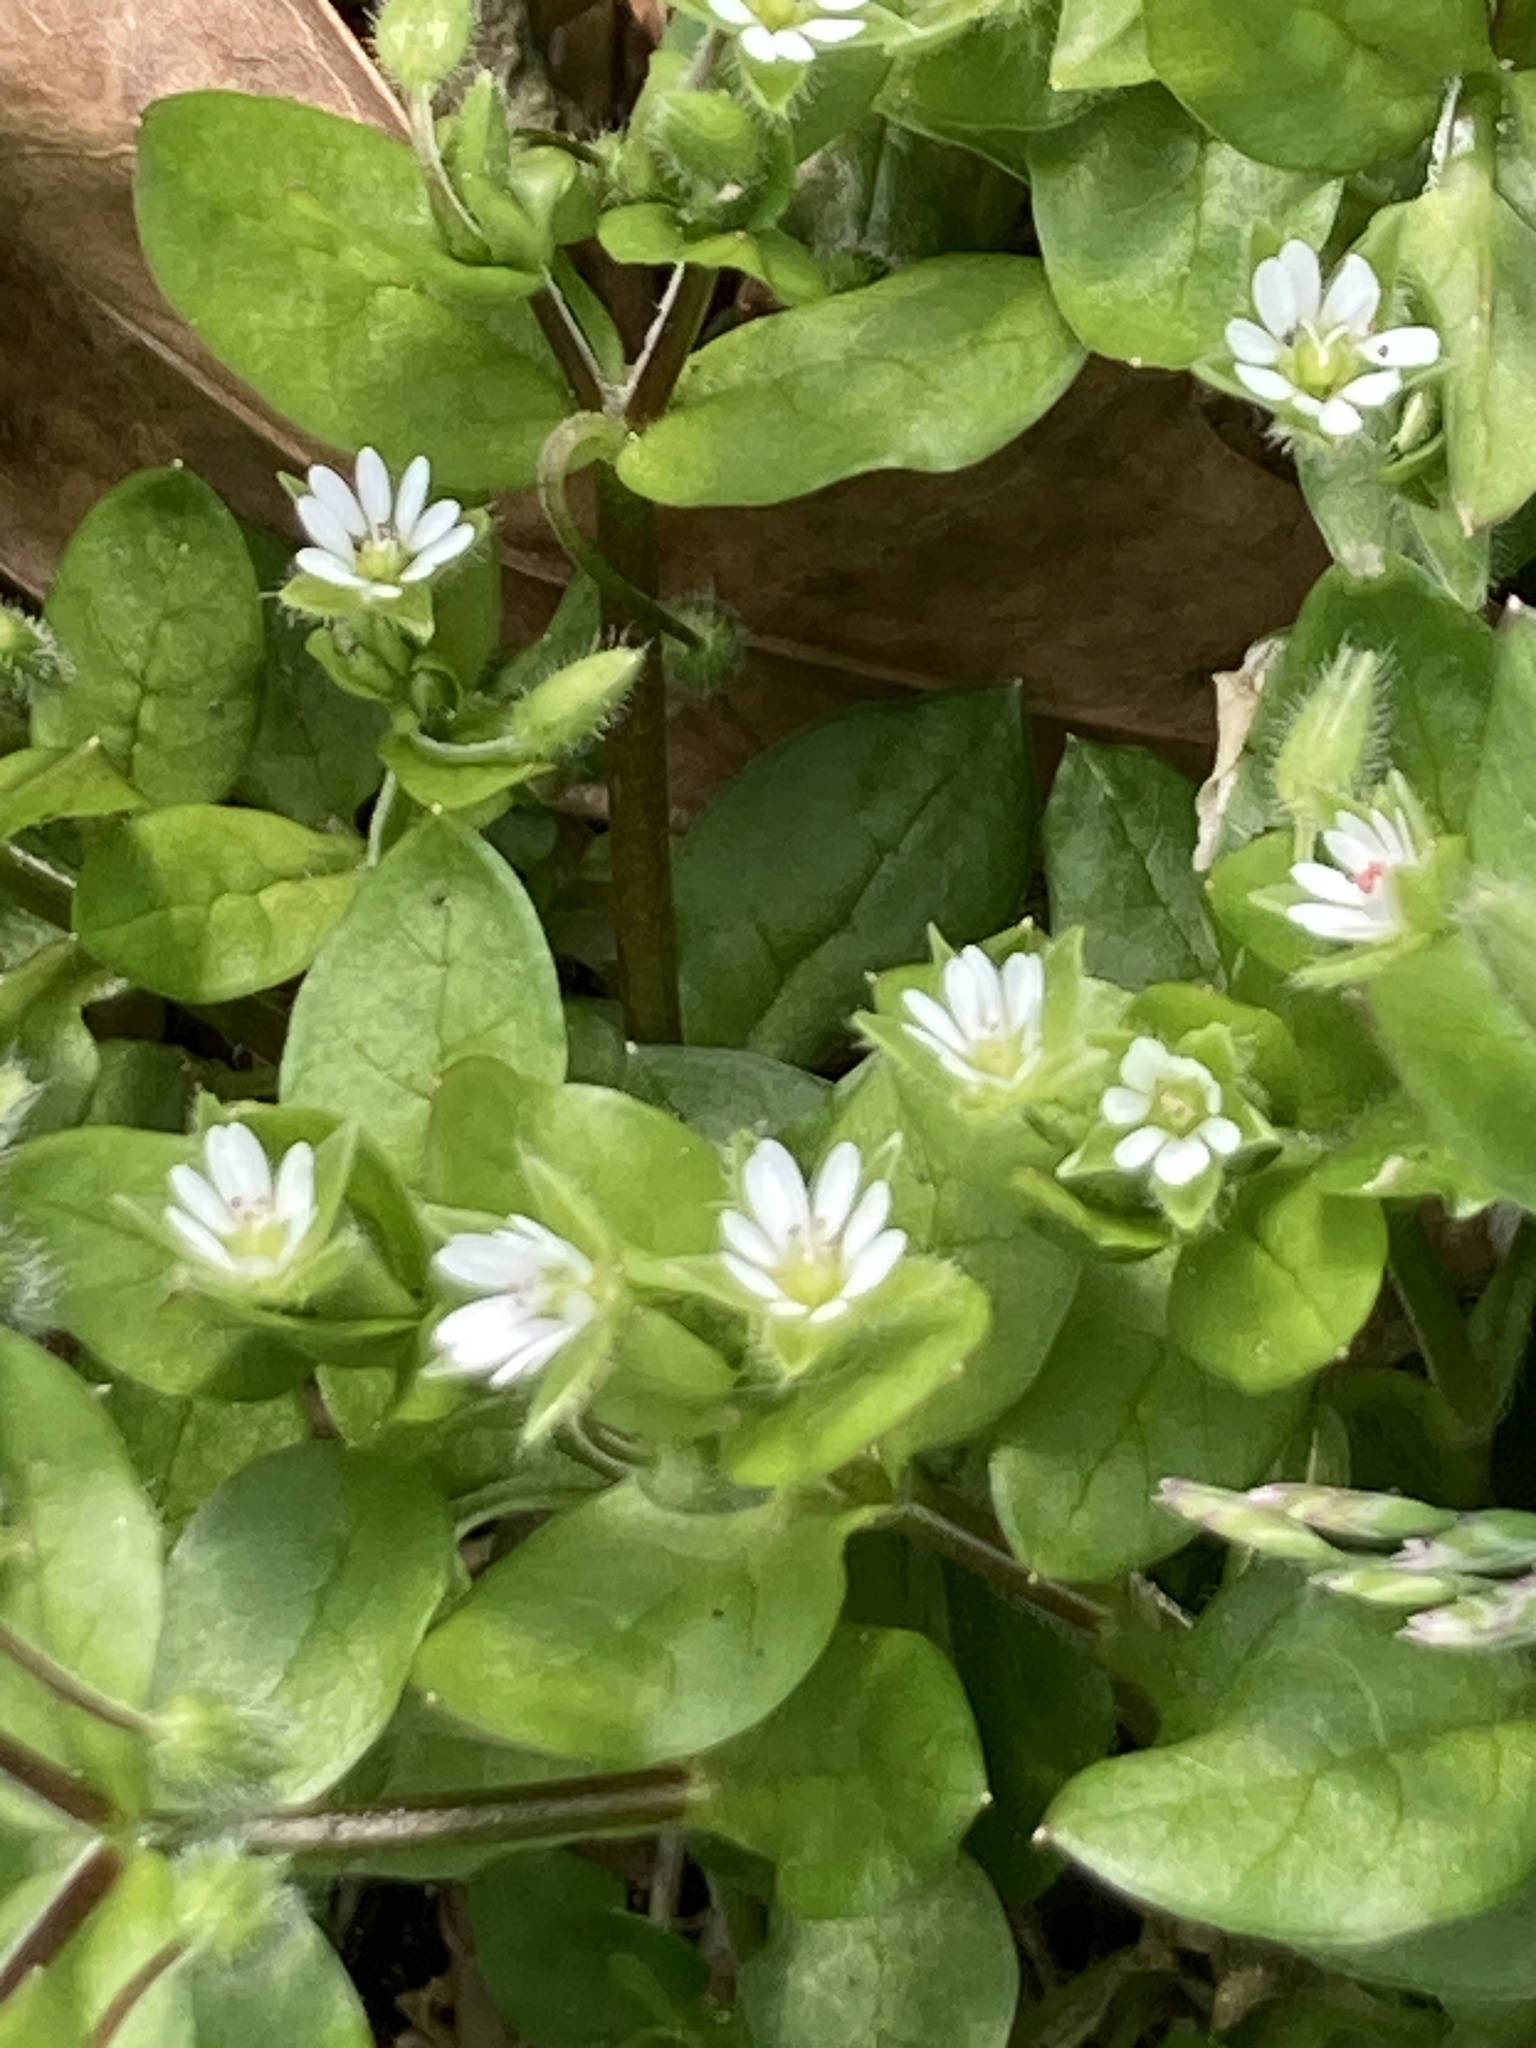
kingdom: Plantae
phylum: Tracheophyta
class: Magnoliopsida
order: Caryophyllales
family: Caryophyllaceae
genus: Stellaria
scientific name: Stellaria media
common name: Common chickweed
